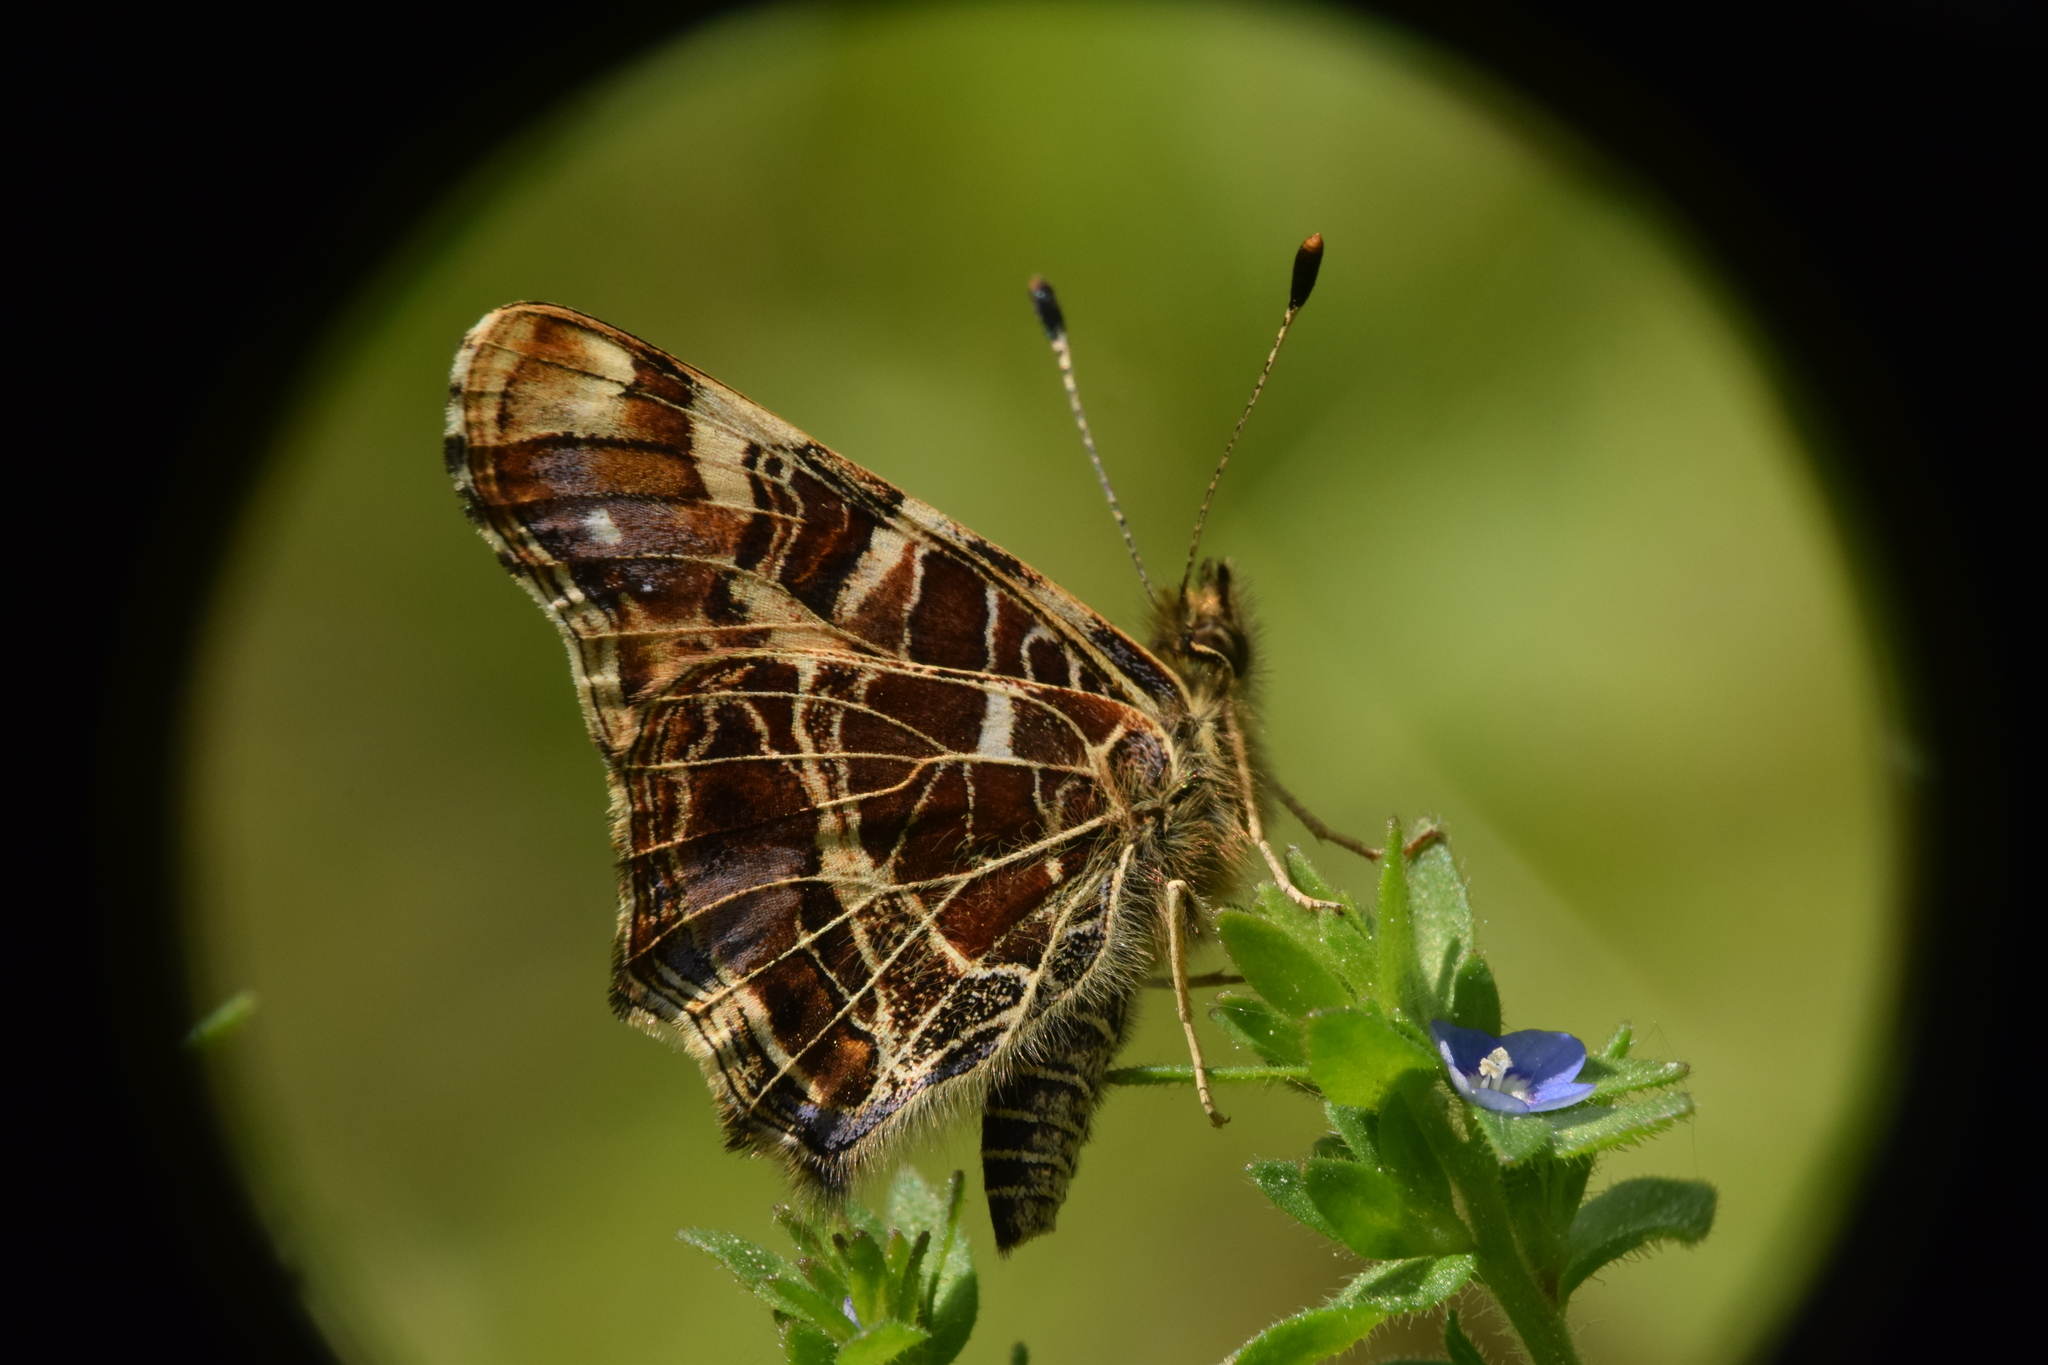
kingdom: Animalia
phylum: Arthropoda
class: Insecta
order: Lepidoptera
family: Nymphalidae
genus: Araschnia
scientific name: Araschnia levana
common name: Map butterfly
